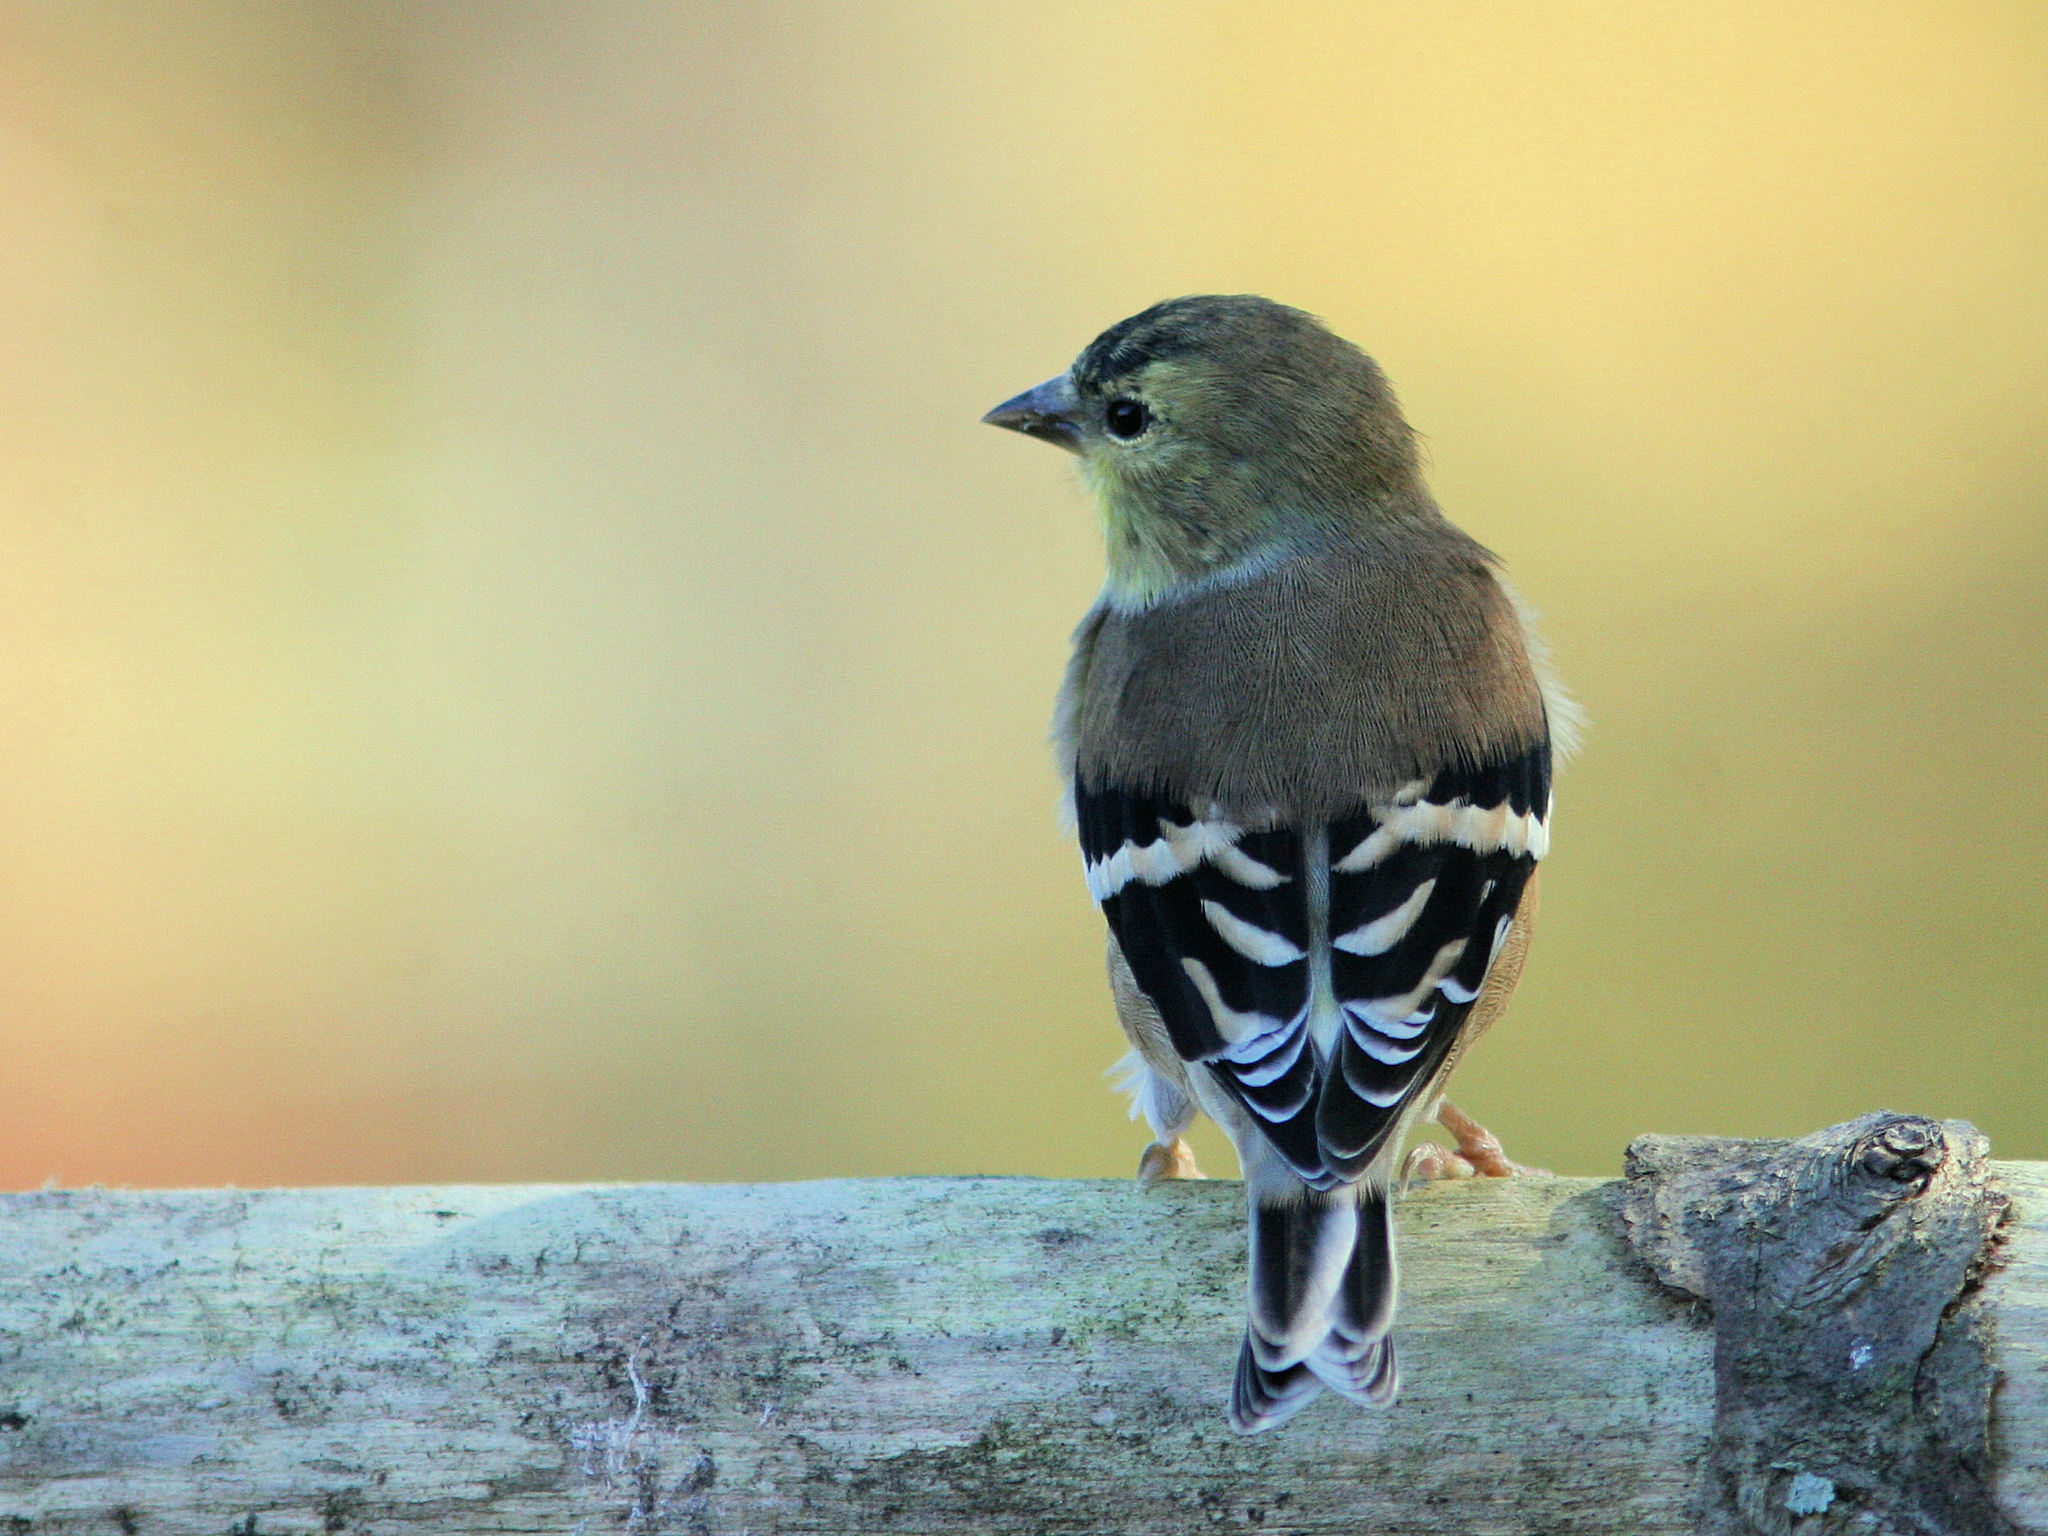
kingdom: Animalia
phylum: Chordata
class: Aves
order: Passeriformes
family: Fringillidae
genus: Spinus
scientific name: Spinus tristis
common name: American goldfinch
